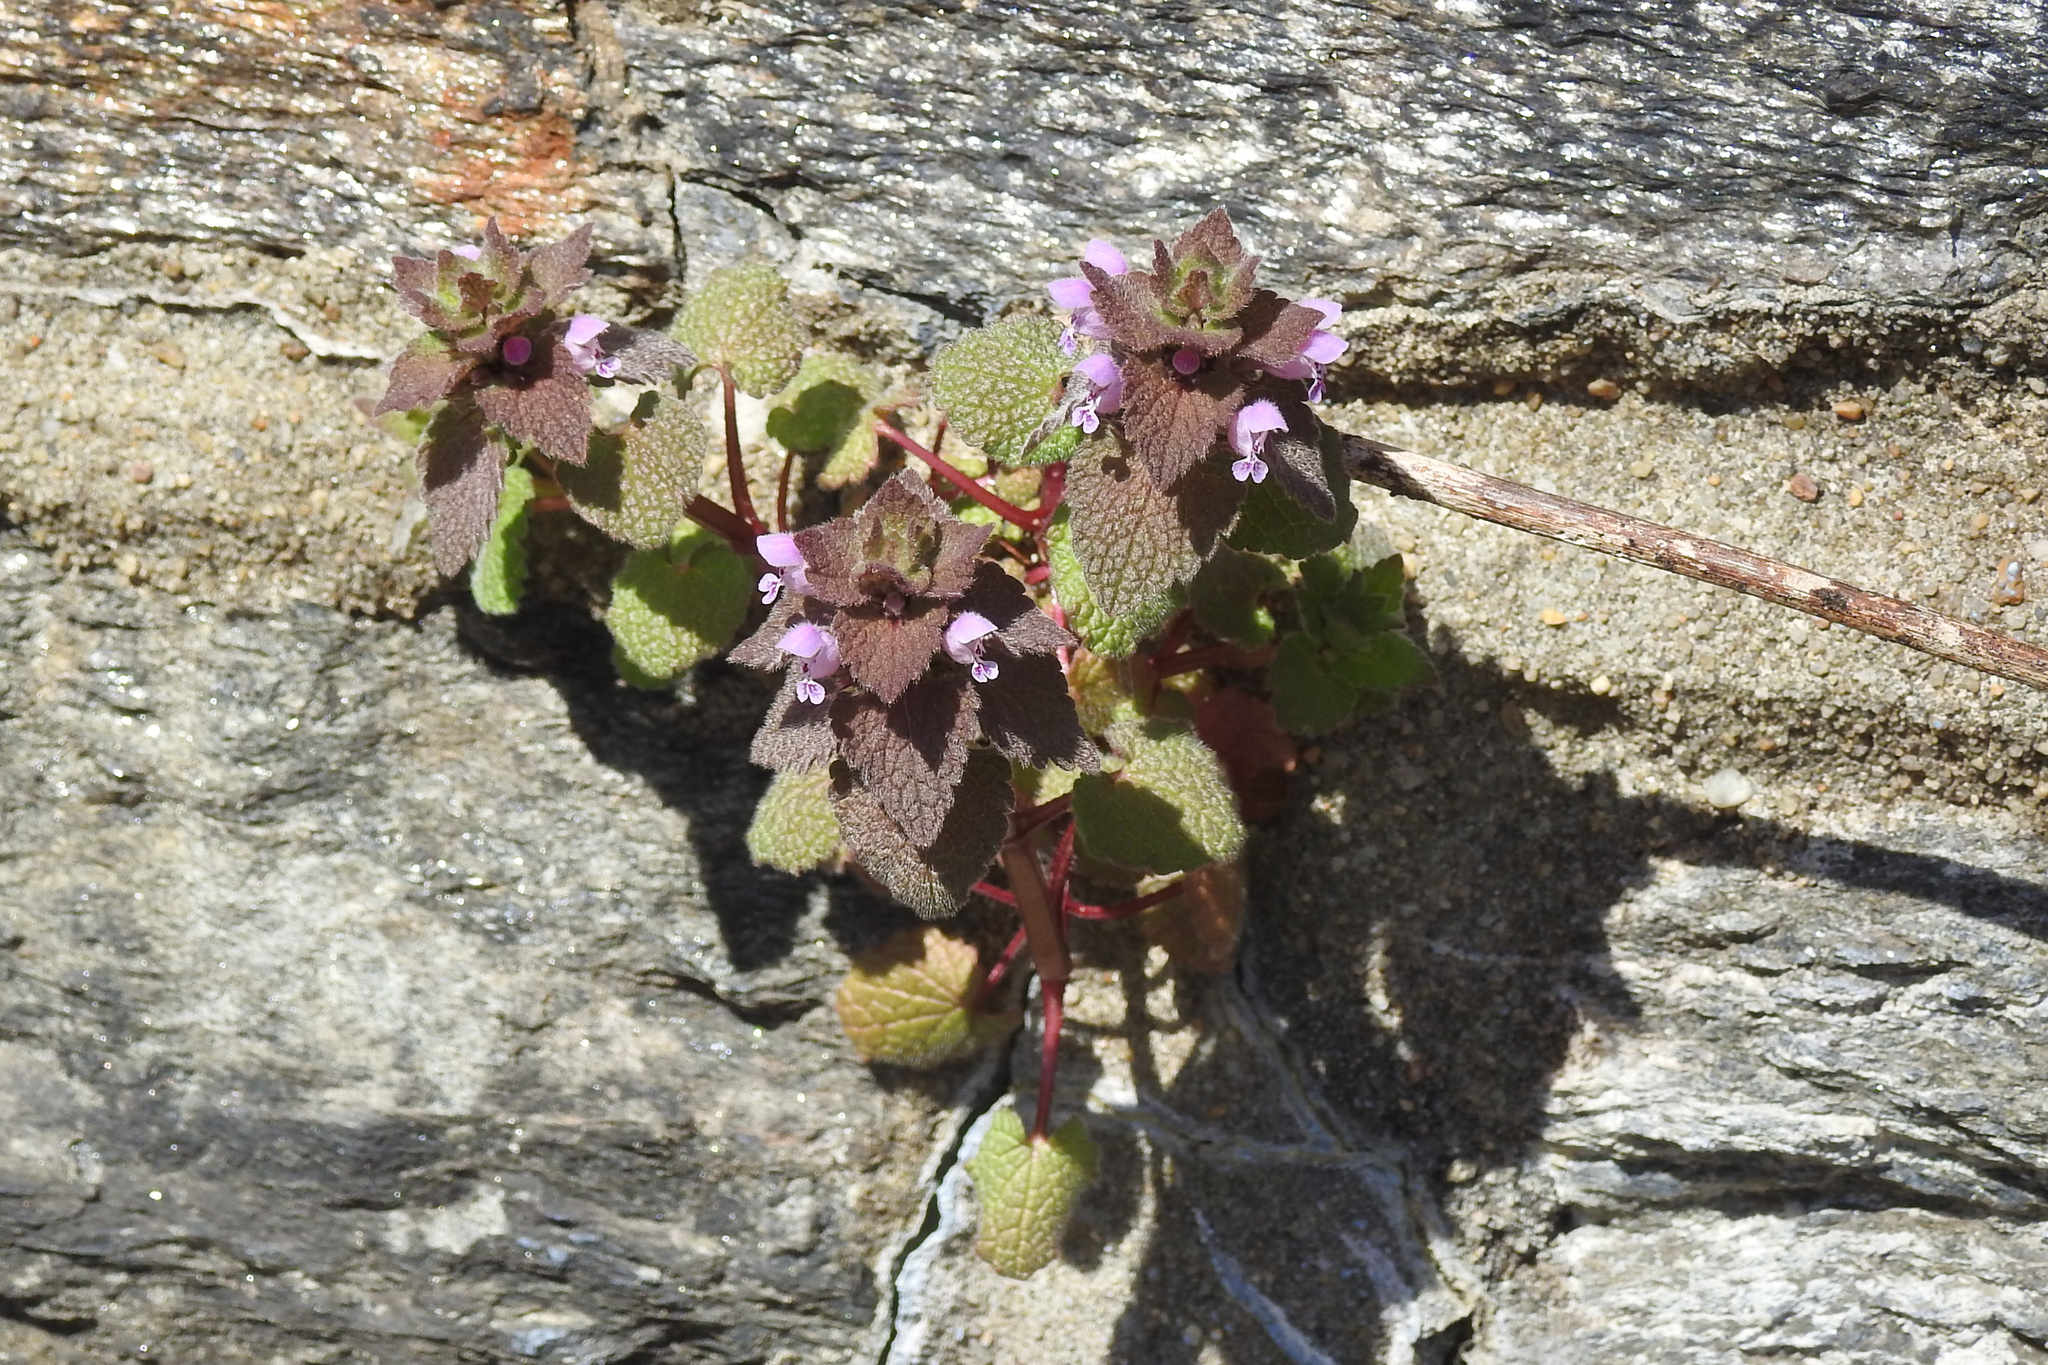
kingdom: Plantae
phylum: Tracheophyta
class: Magnoliopsida
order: Lamiales
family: Lamiaceae
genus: Lamium
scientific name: Lamium purpureum
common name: Red dead-nettle
